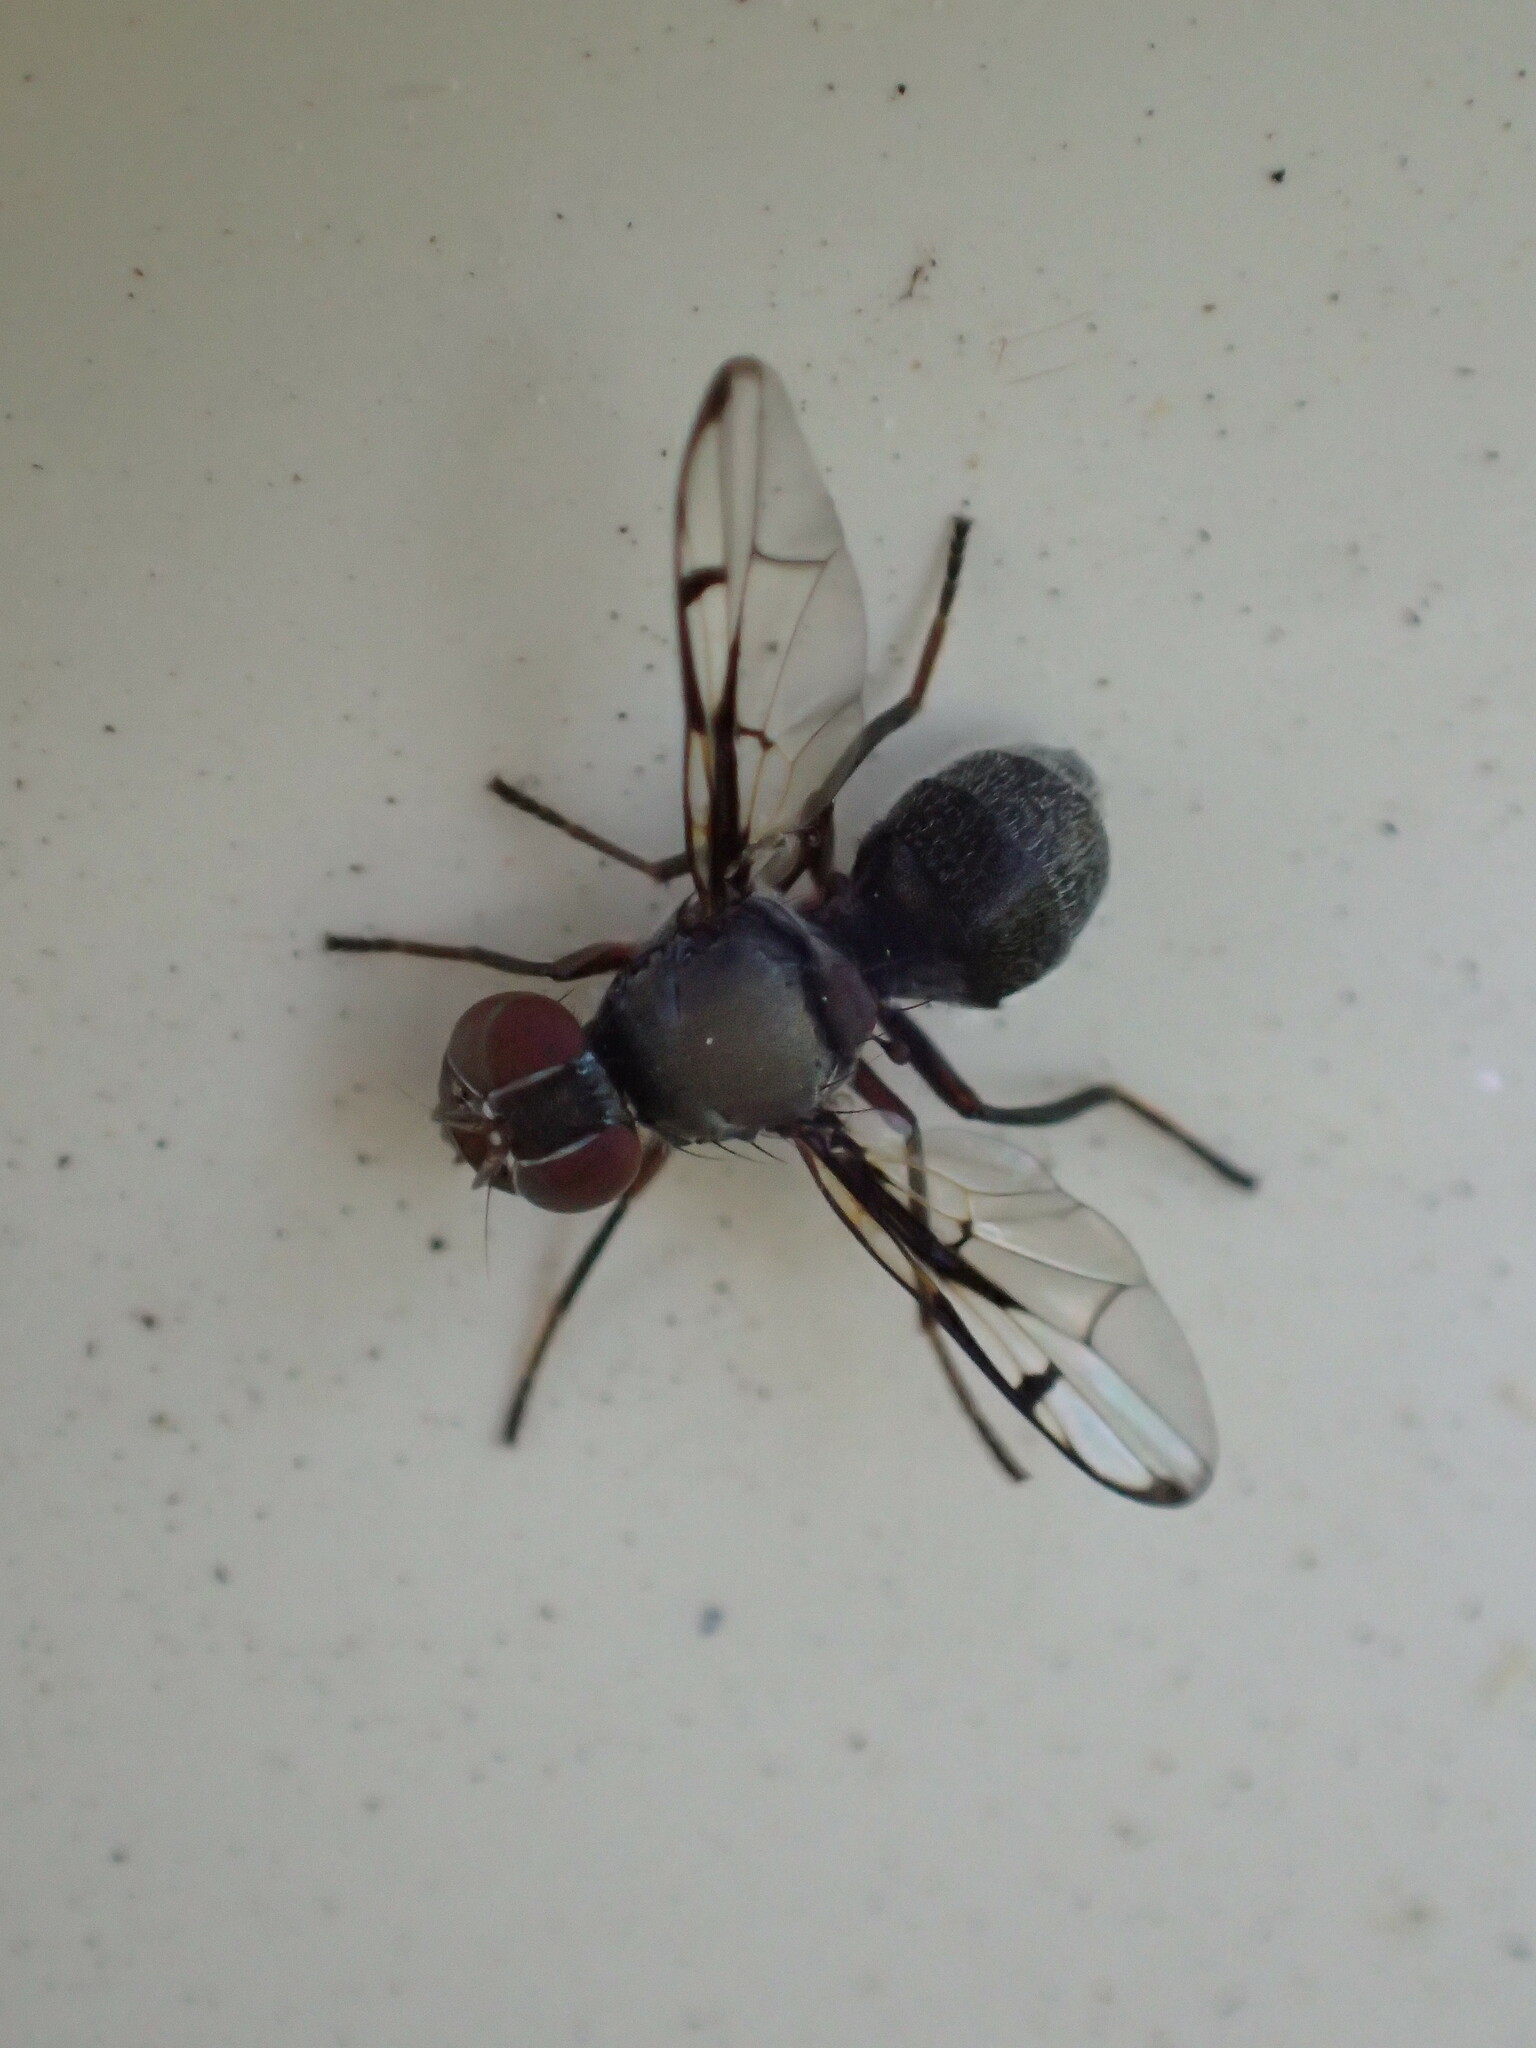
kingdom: Animalia
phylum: Arthropoda
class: Insecta
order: Diptera
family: Platystomatidae
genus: Pogonortalis
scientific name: Pogonortalis doclea
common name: Boatman fly
